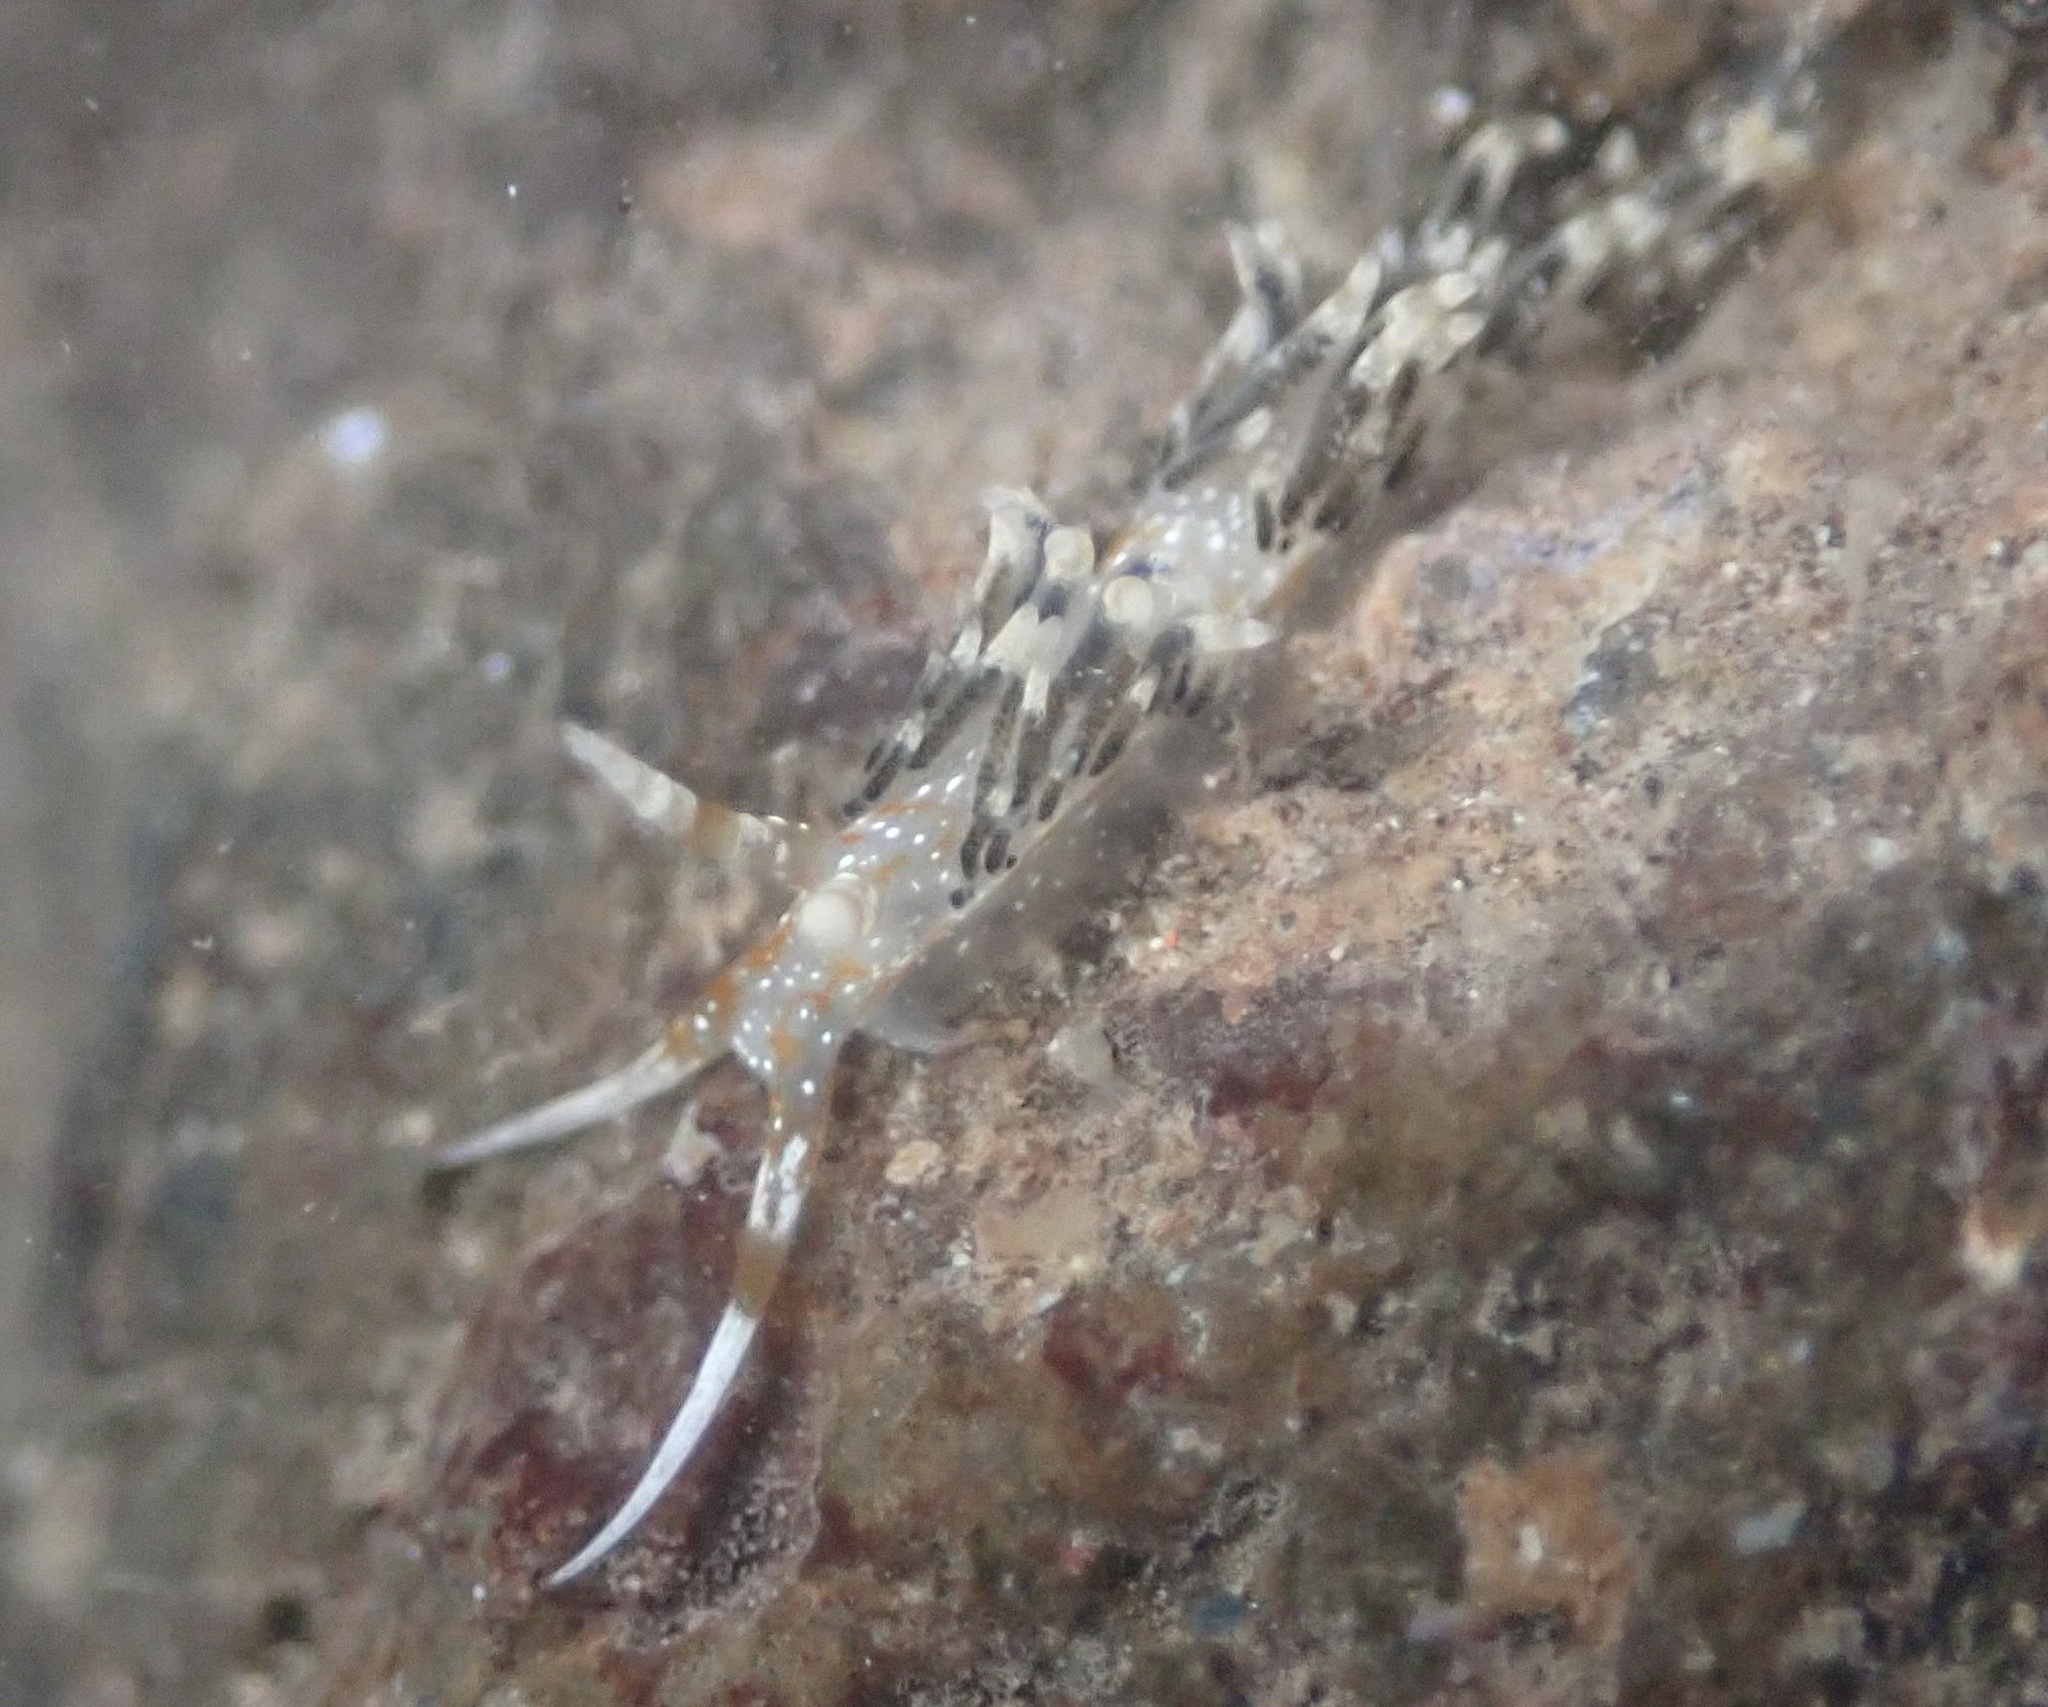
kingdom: Animalia
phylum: Mollusca
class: Gastropoda
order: Nudibranchia
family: Facelinidae
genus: Phidiana
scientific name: Phidiana semidecora
